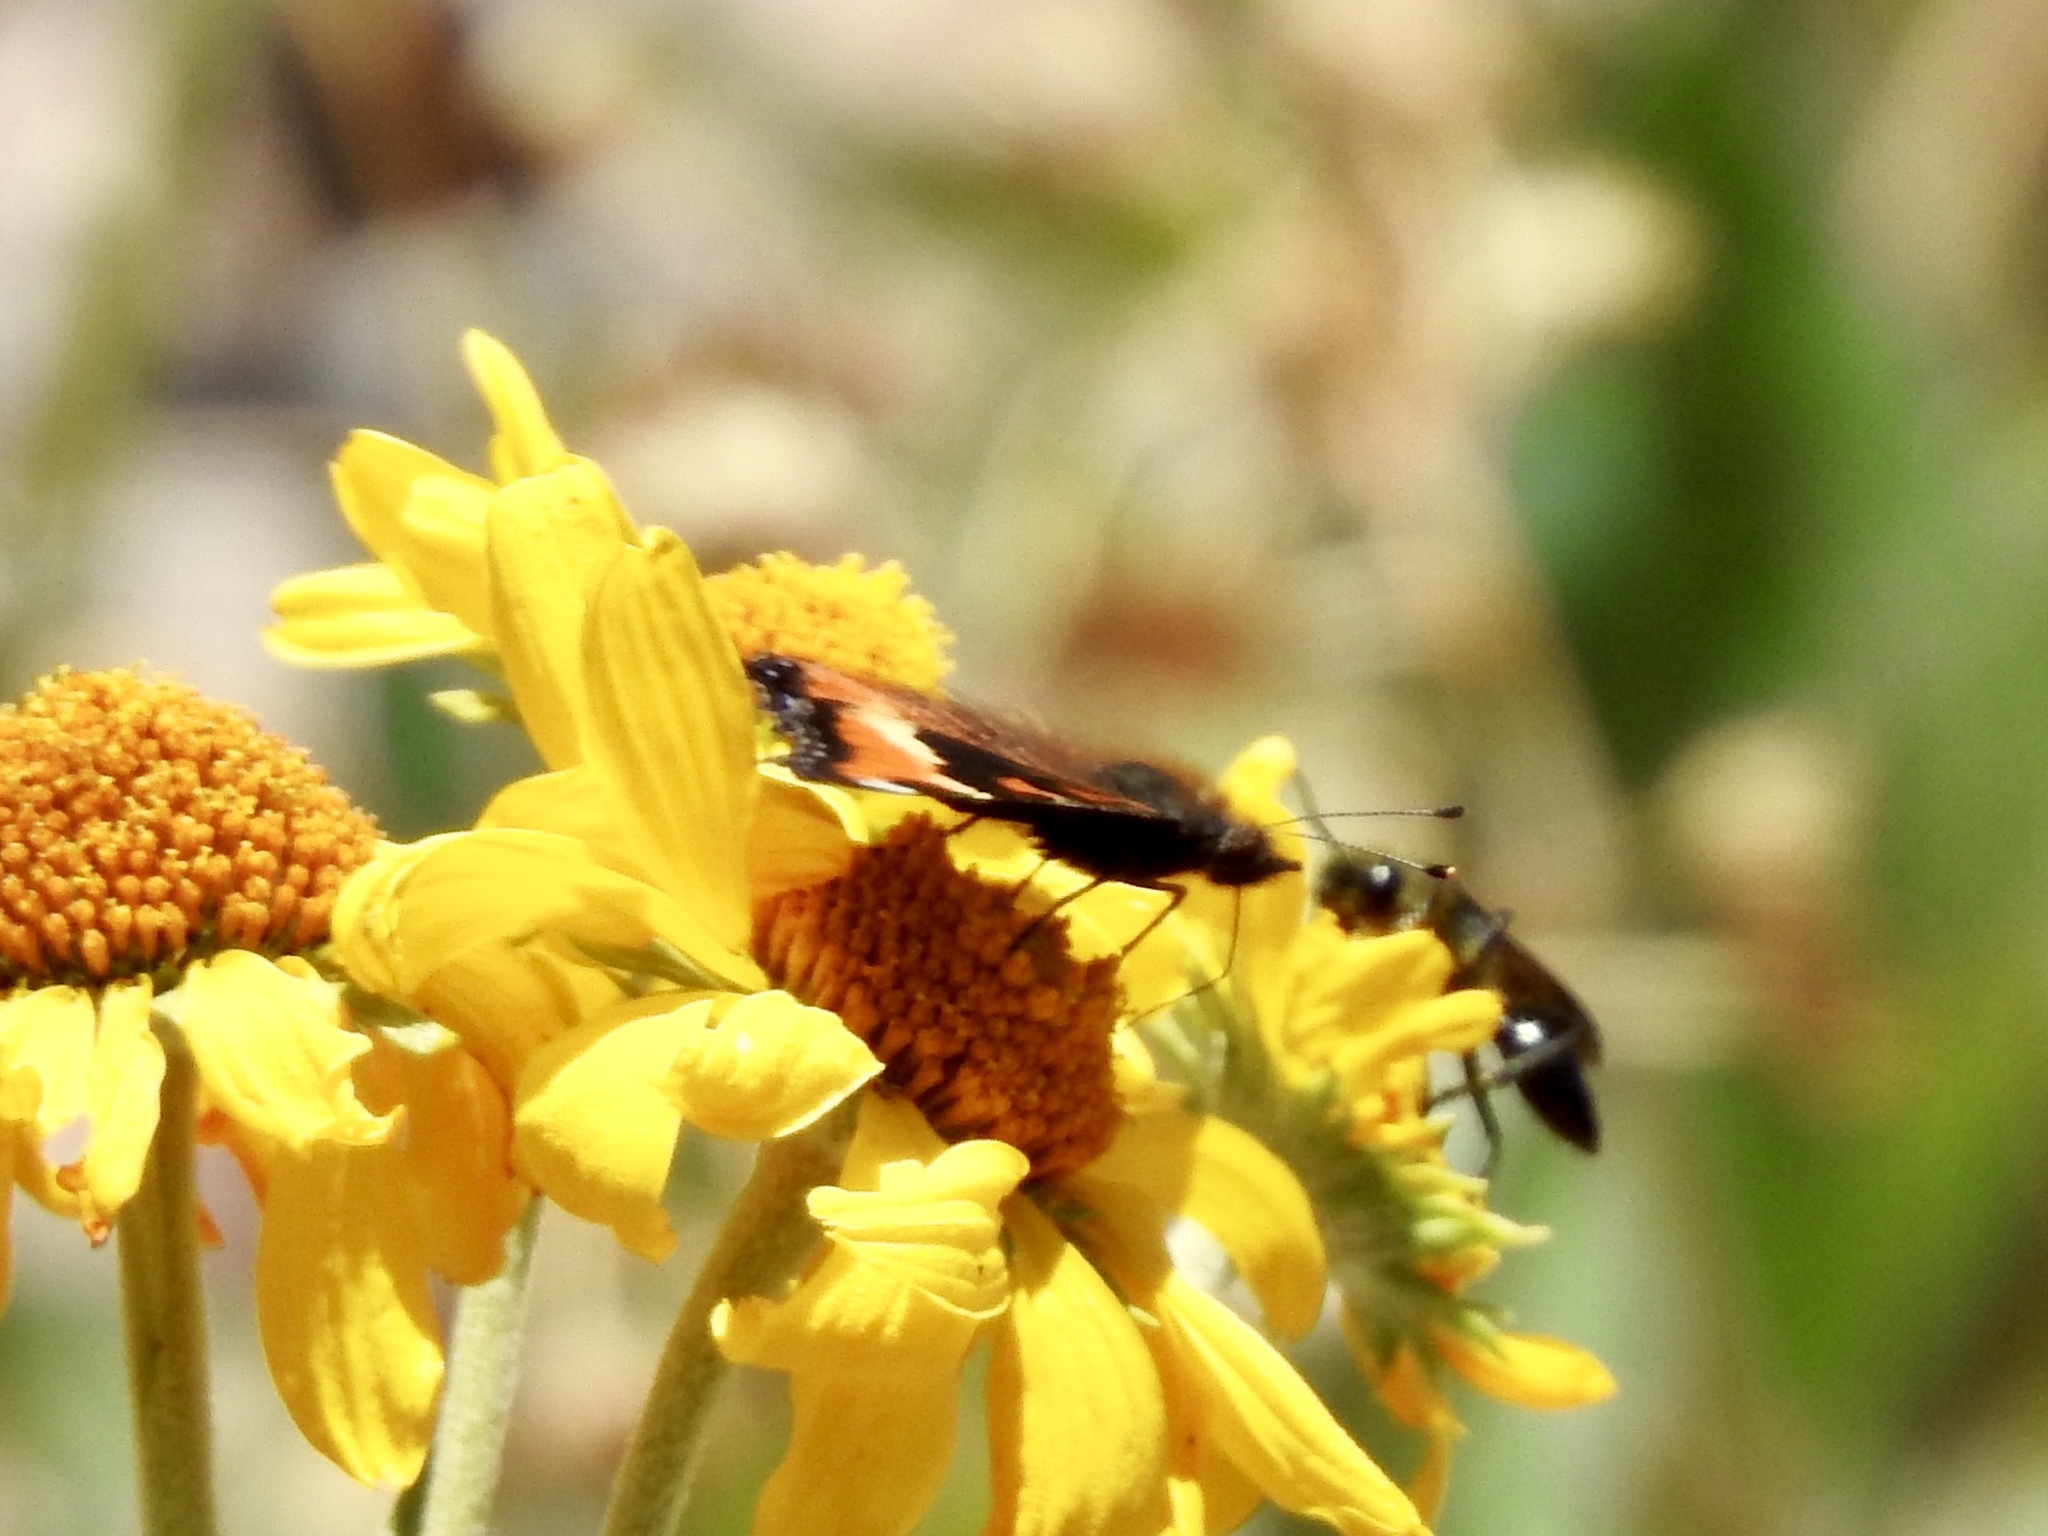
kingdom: Animalia
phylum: Arthropoda
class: Insecta
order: Lepidoptera
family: Nymphalidae
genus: Aglais
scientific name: Aglais milberti
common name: Milbert's tortoiseshell
